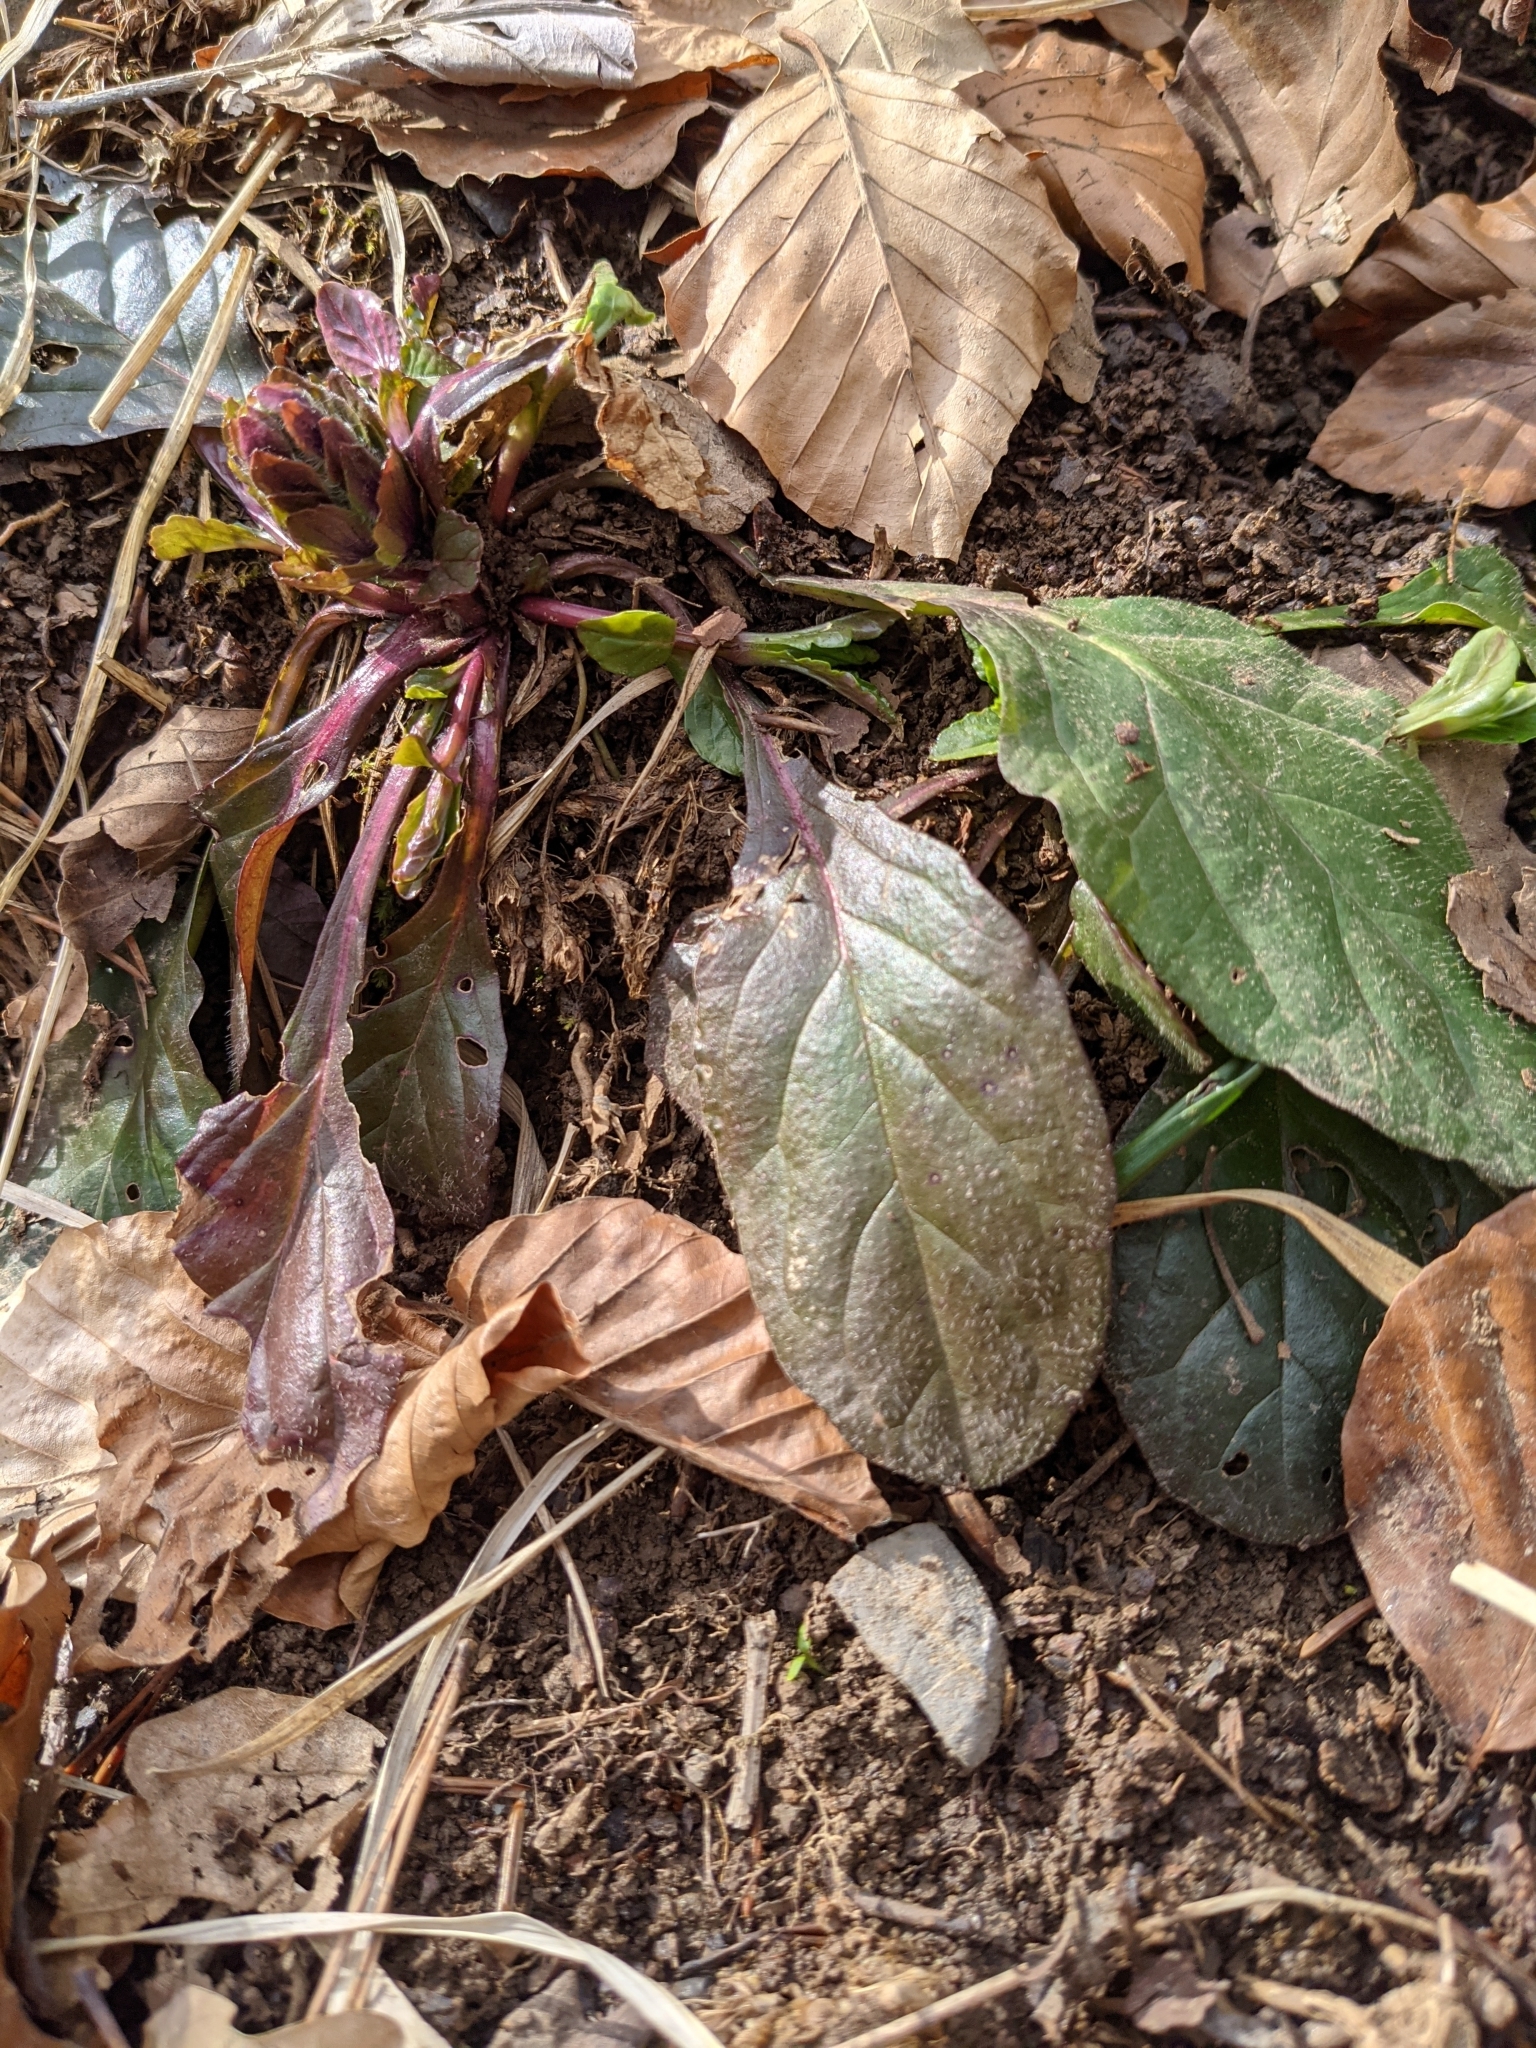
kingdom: Plantae
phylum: Tracheophyta
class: Magnoliopsida
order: Lamiales
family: Lamiaceae
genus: Ajuga
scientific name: Ajuga reptans
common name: Bugle
